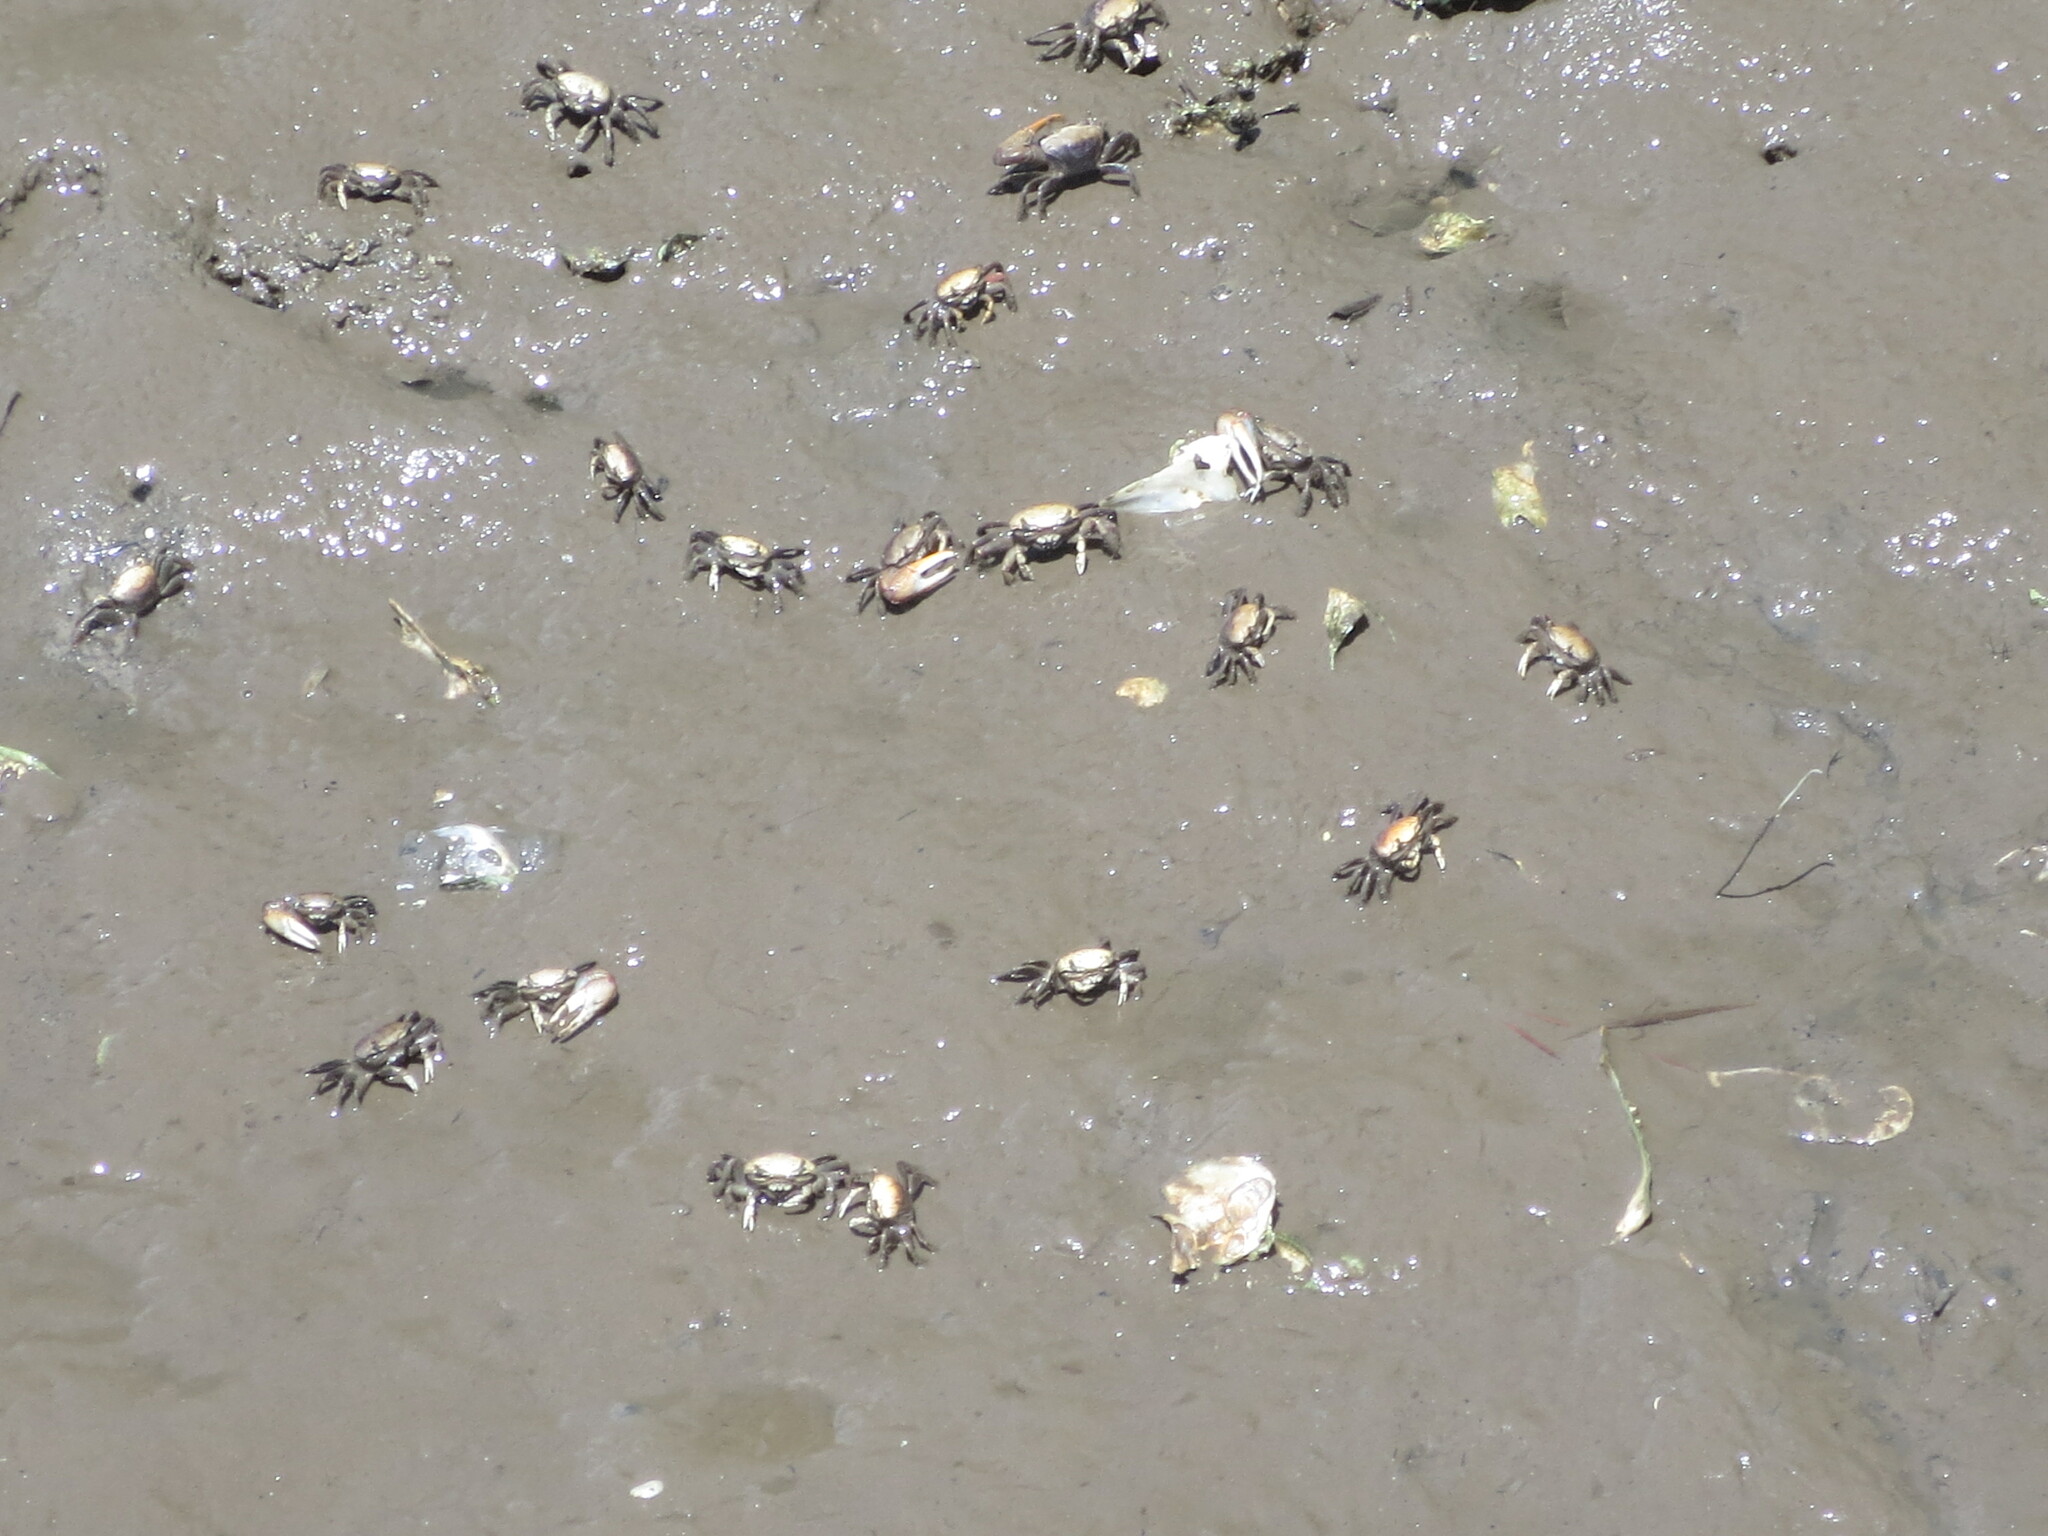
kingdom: Animalia
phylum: Arthropoda
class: Malacostraca
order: Decapoda
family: Ocypodidae
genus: Minuca
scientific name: Minuca minax
